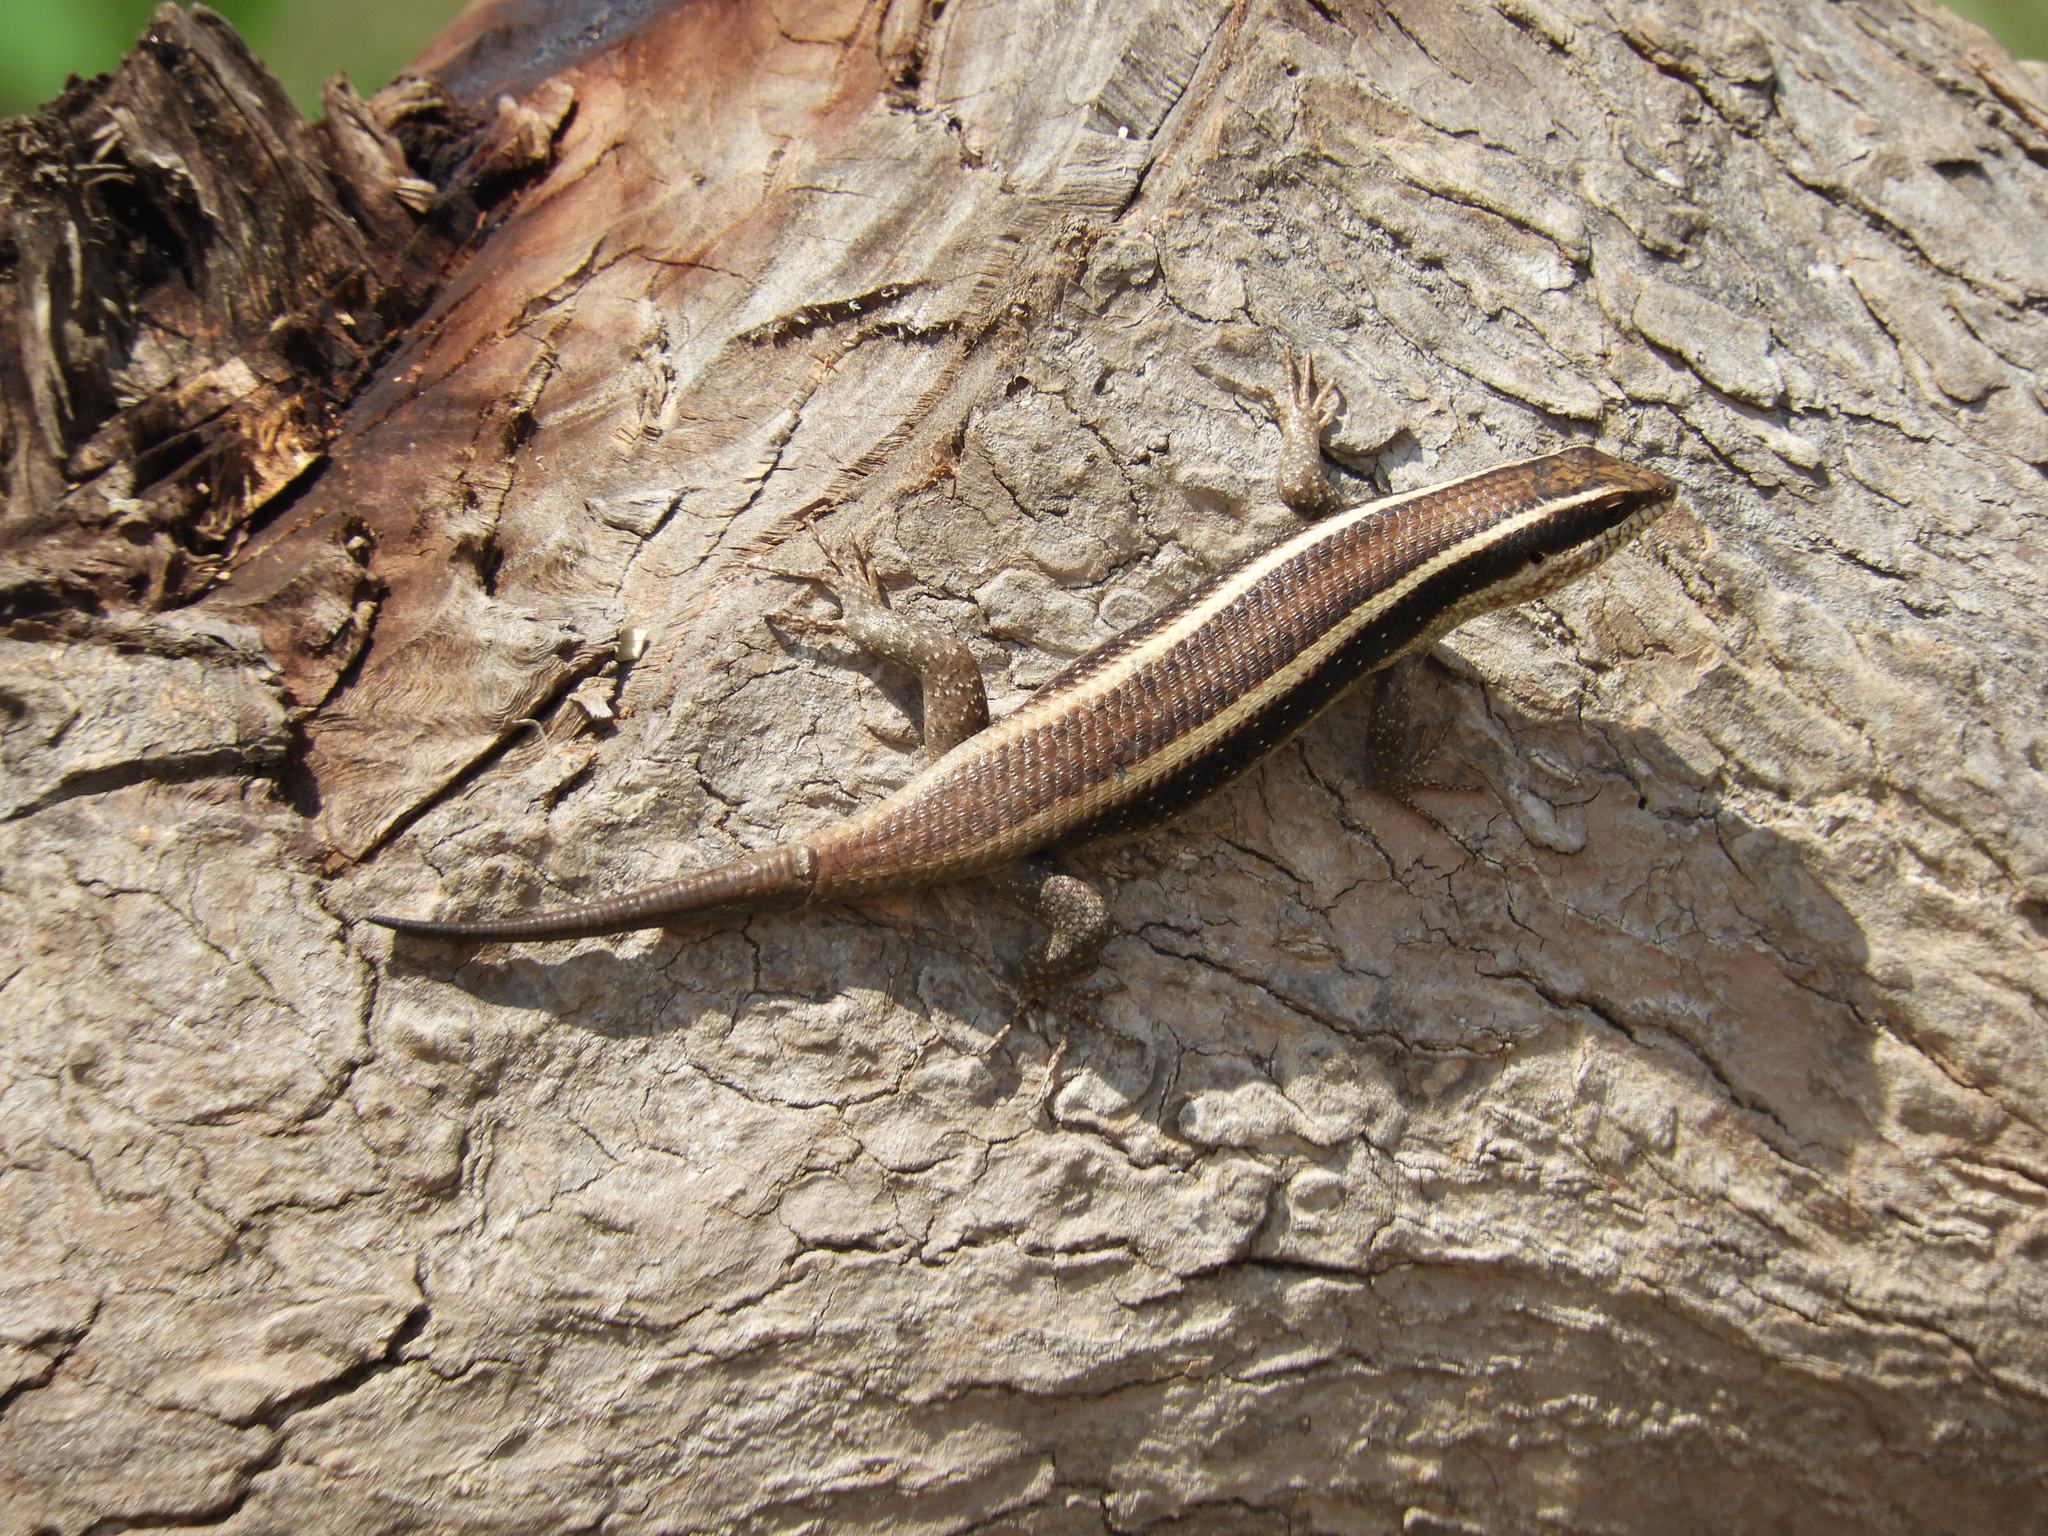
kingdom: Animalia
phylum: Chordata
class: Squamata
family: Scincidae
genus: Trachylepis
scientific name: Trachylepis striata
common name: African striped mabuya
